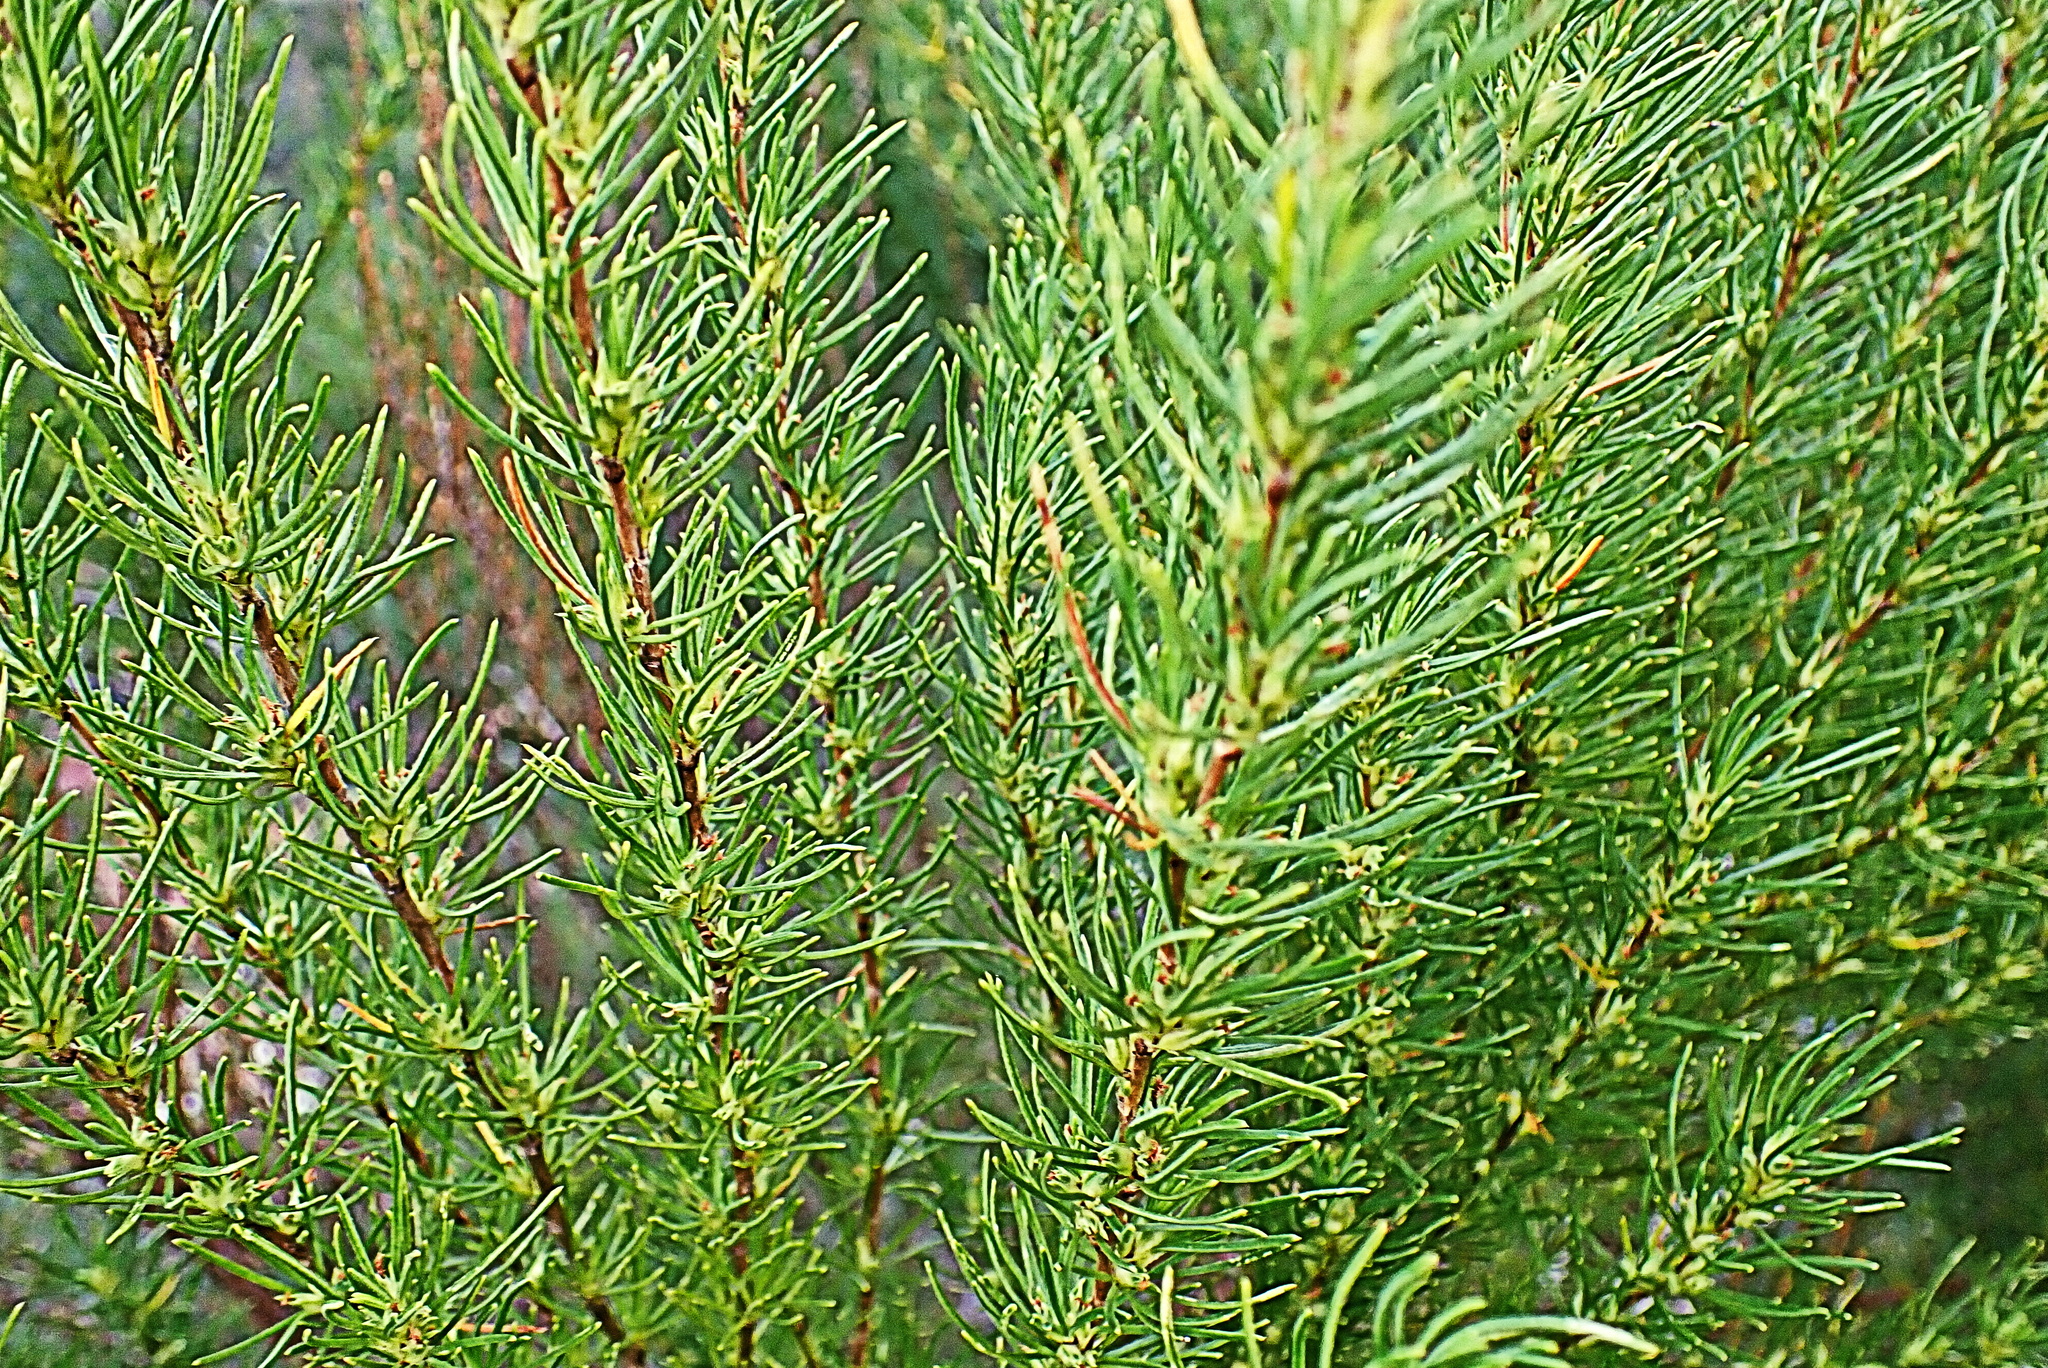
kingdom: Plantae
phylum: Tracheophyta
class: Magnoliopsida
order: Rosales
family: Rosaceae
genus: Cliffortia
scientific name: Cliffortia burchellii
